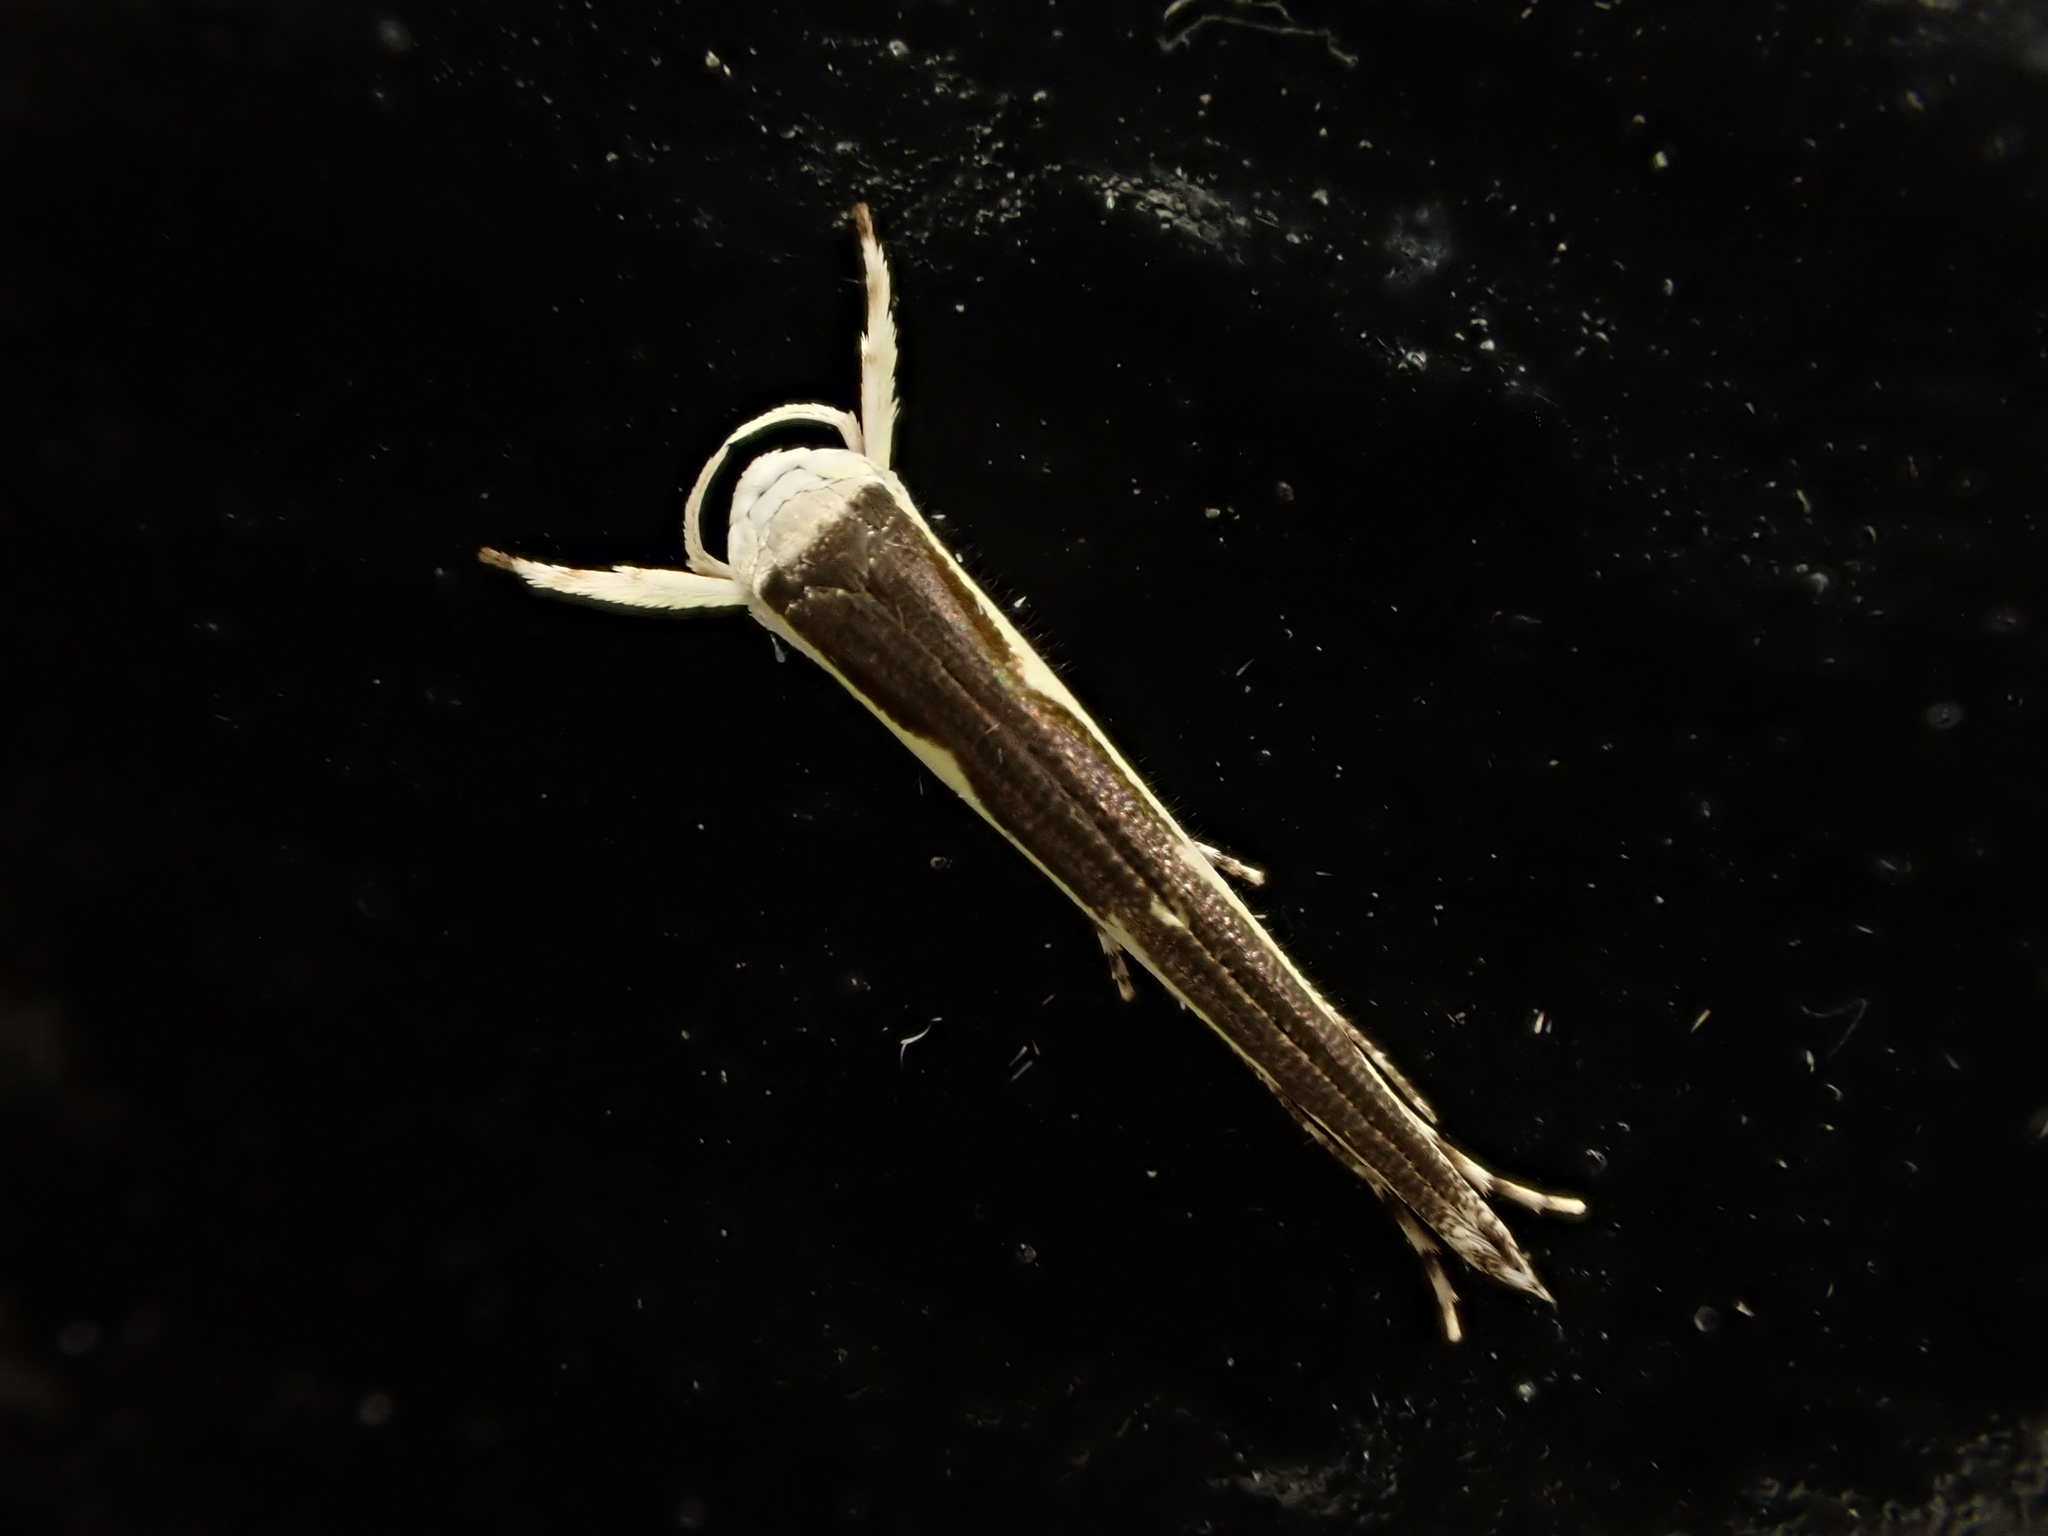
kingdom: Animalia
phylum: Arthropoda
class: Insecta
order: Lepidoptera
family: Roeslerstammiidae
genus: Vanicela
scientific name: Vanicela disjunctella
